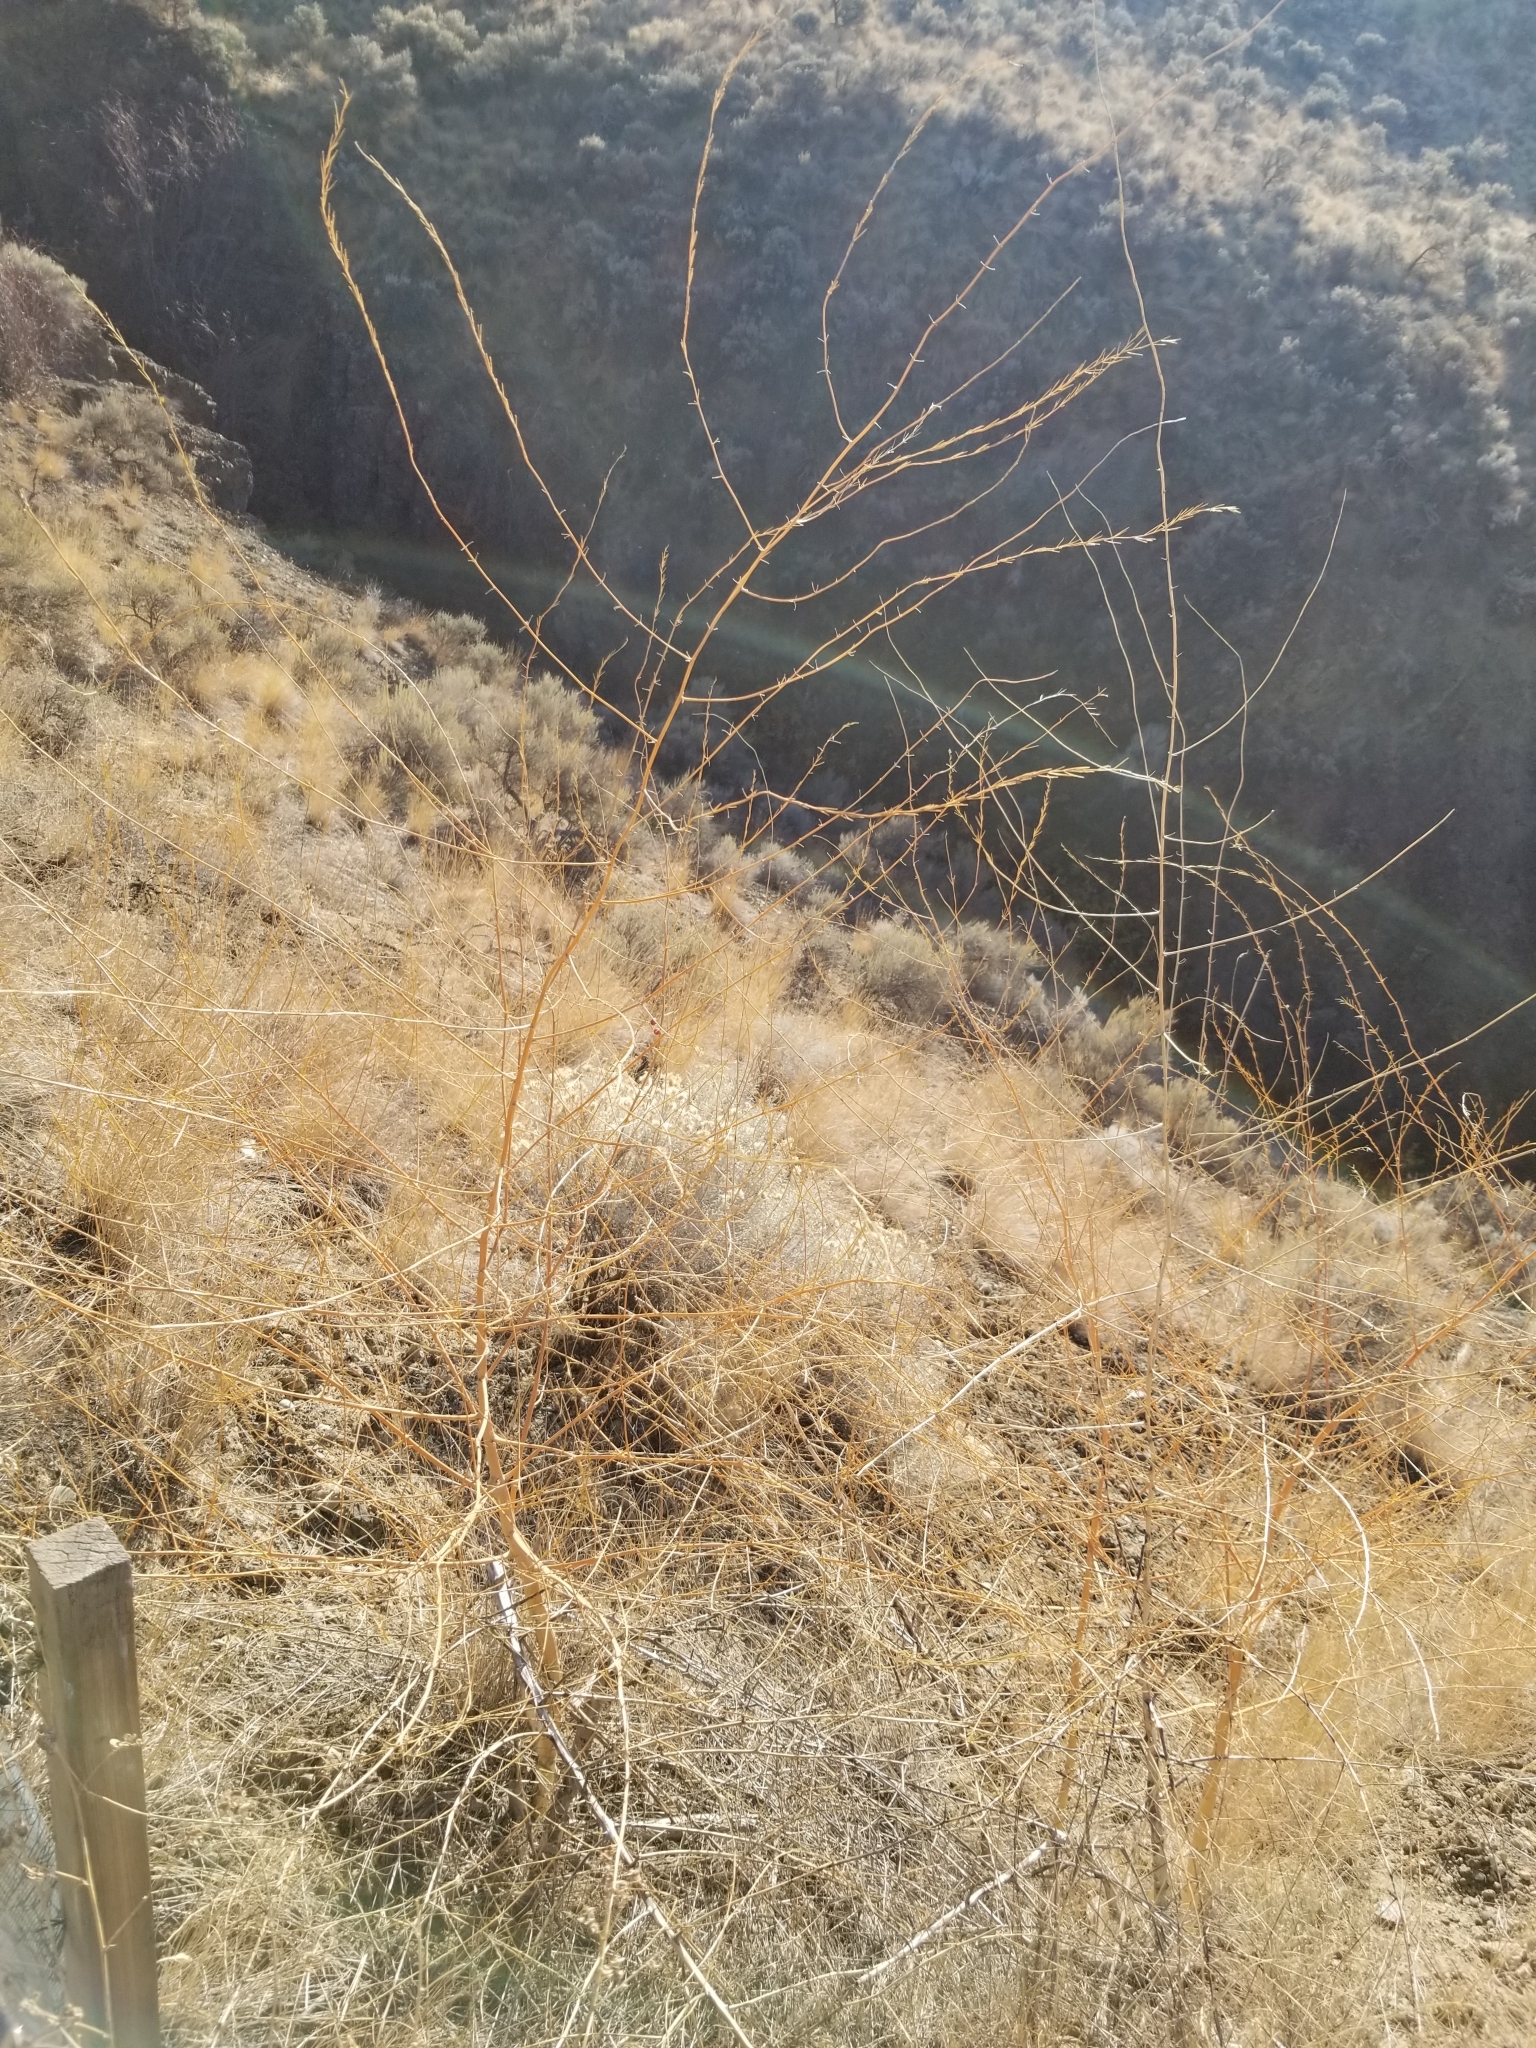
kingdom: Plantae
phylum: Tracheophyta
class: Liliopsida
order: Asparagales
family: Asparagaceae
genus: Asparagus
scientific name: Asparagus officinalis
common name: Garden asparagus
